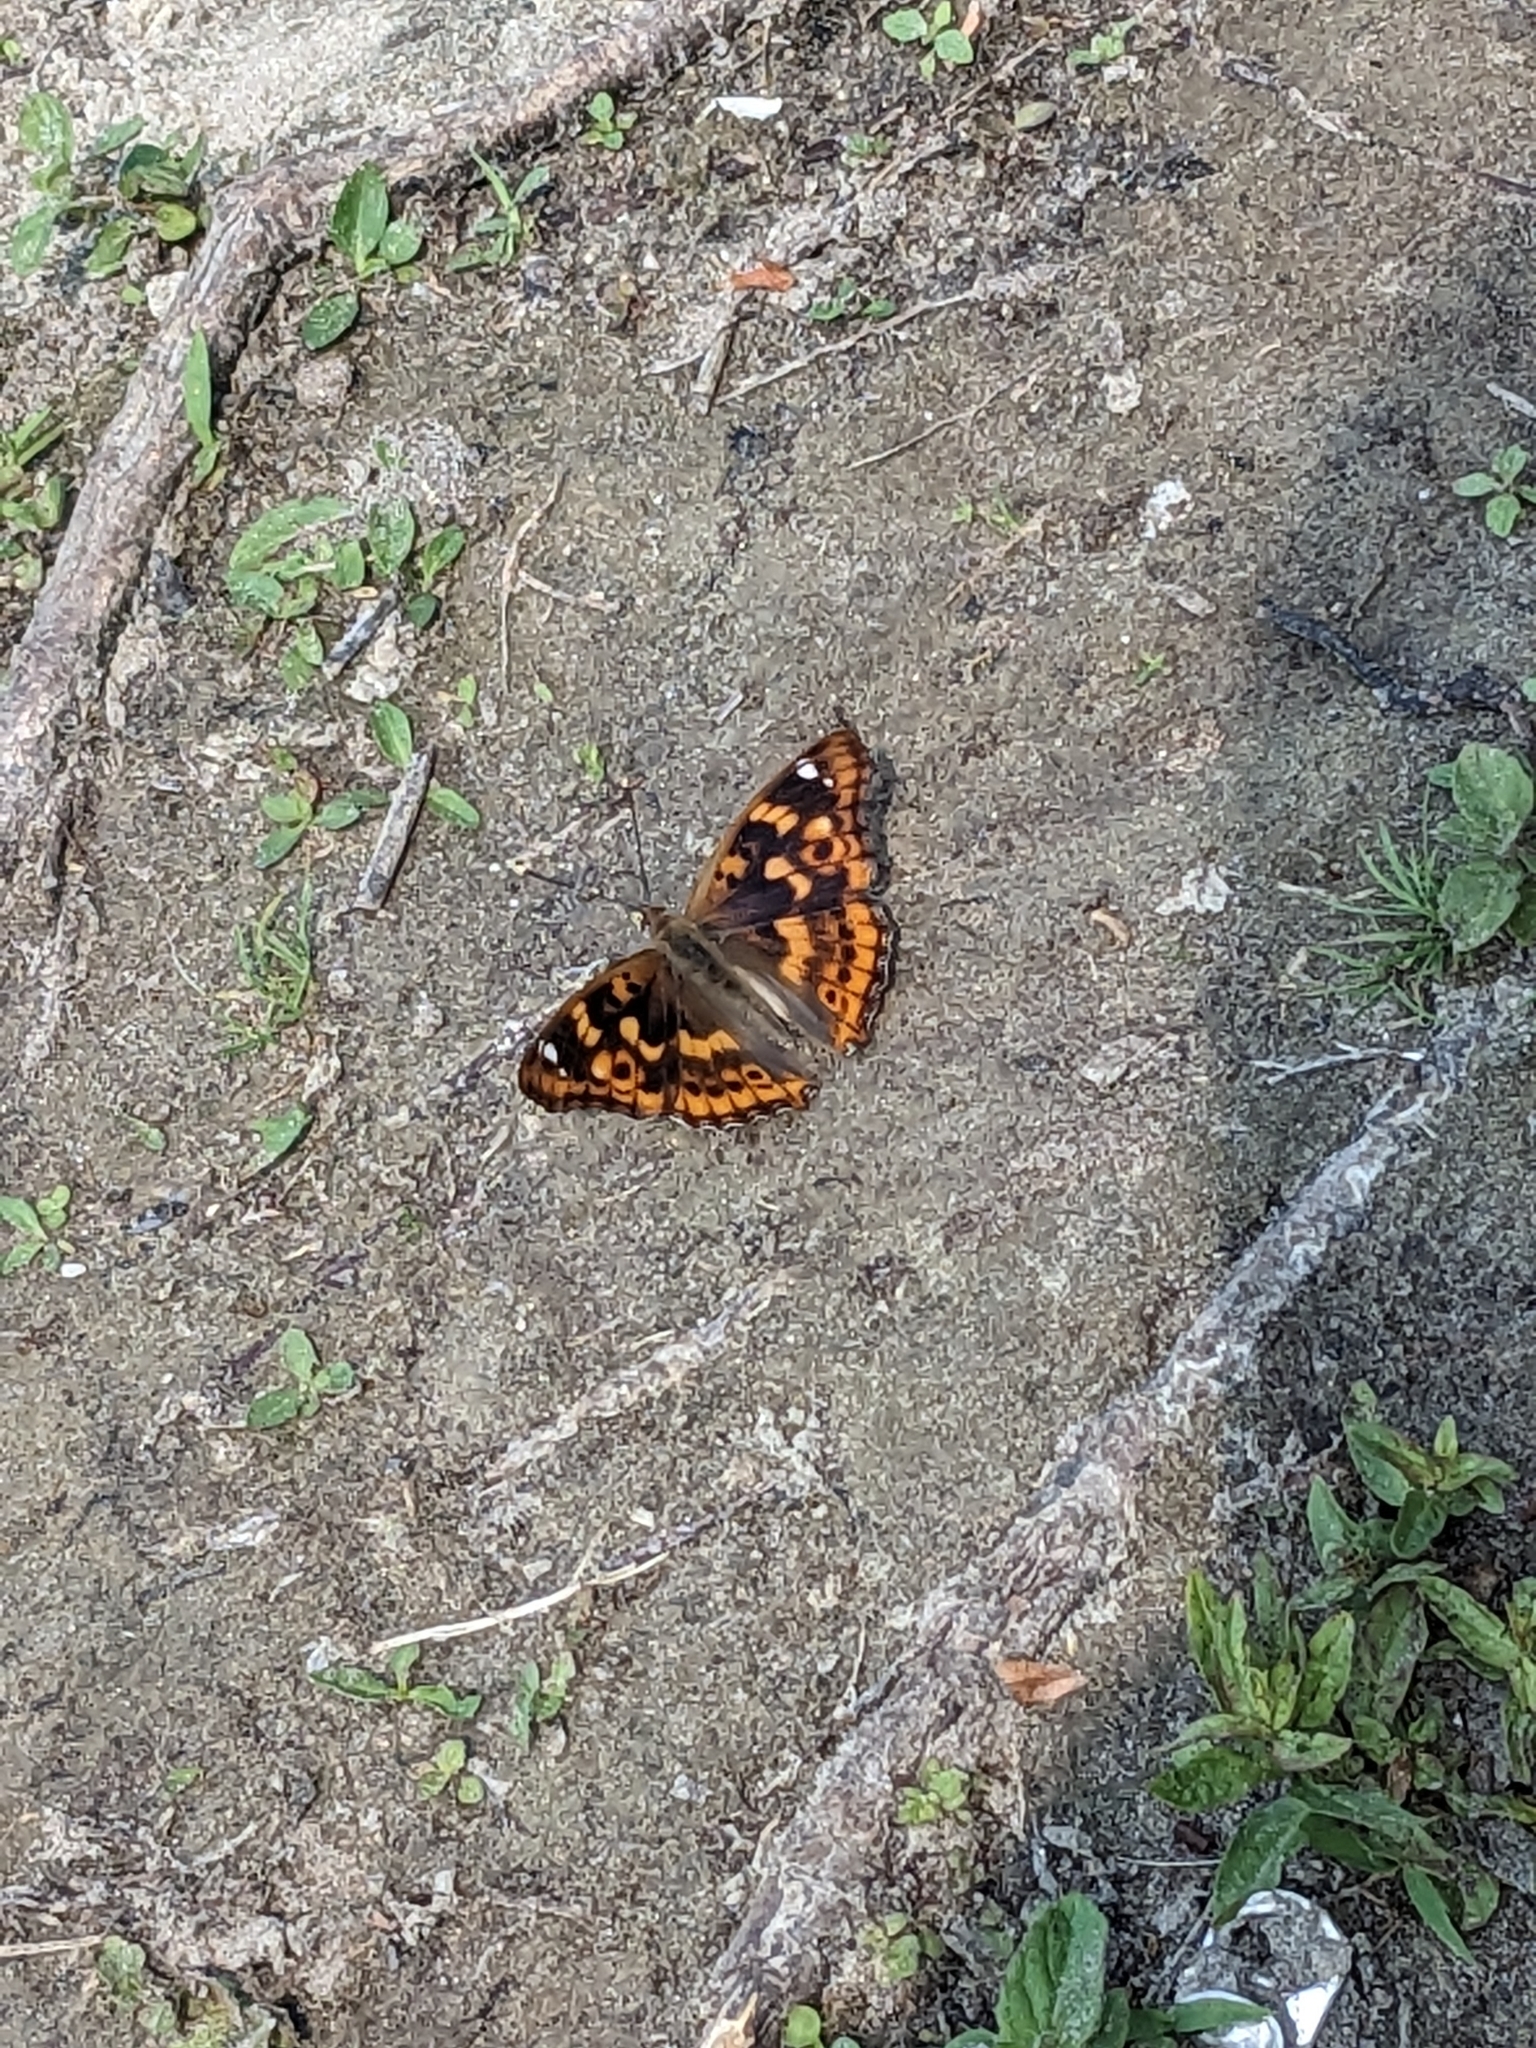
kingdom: Animalia
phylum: Arthropoda
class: Insecta
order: Lepidoptera
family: Nymphalidae
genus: Apatura
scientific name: Apatura ilia
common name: Lesser purple emperor
